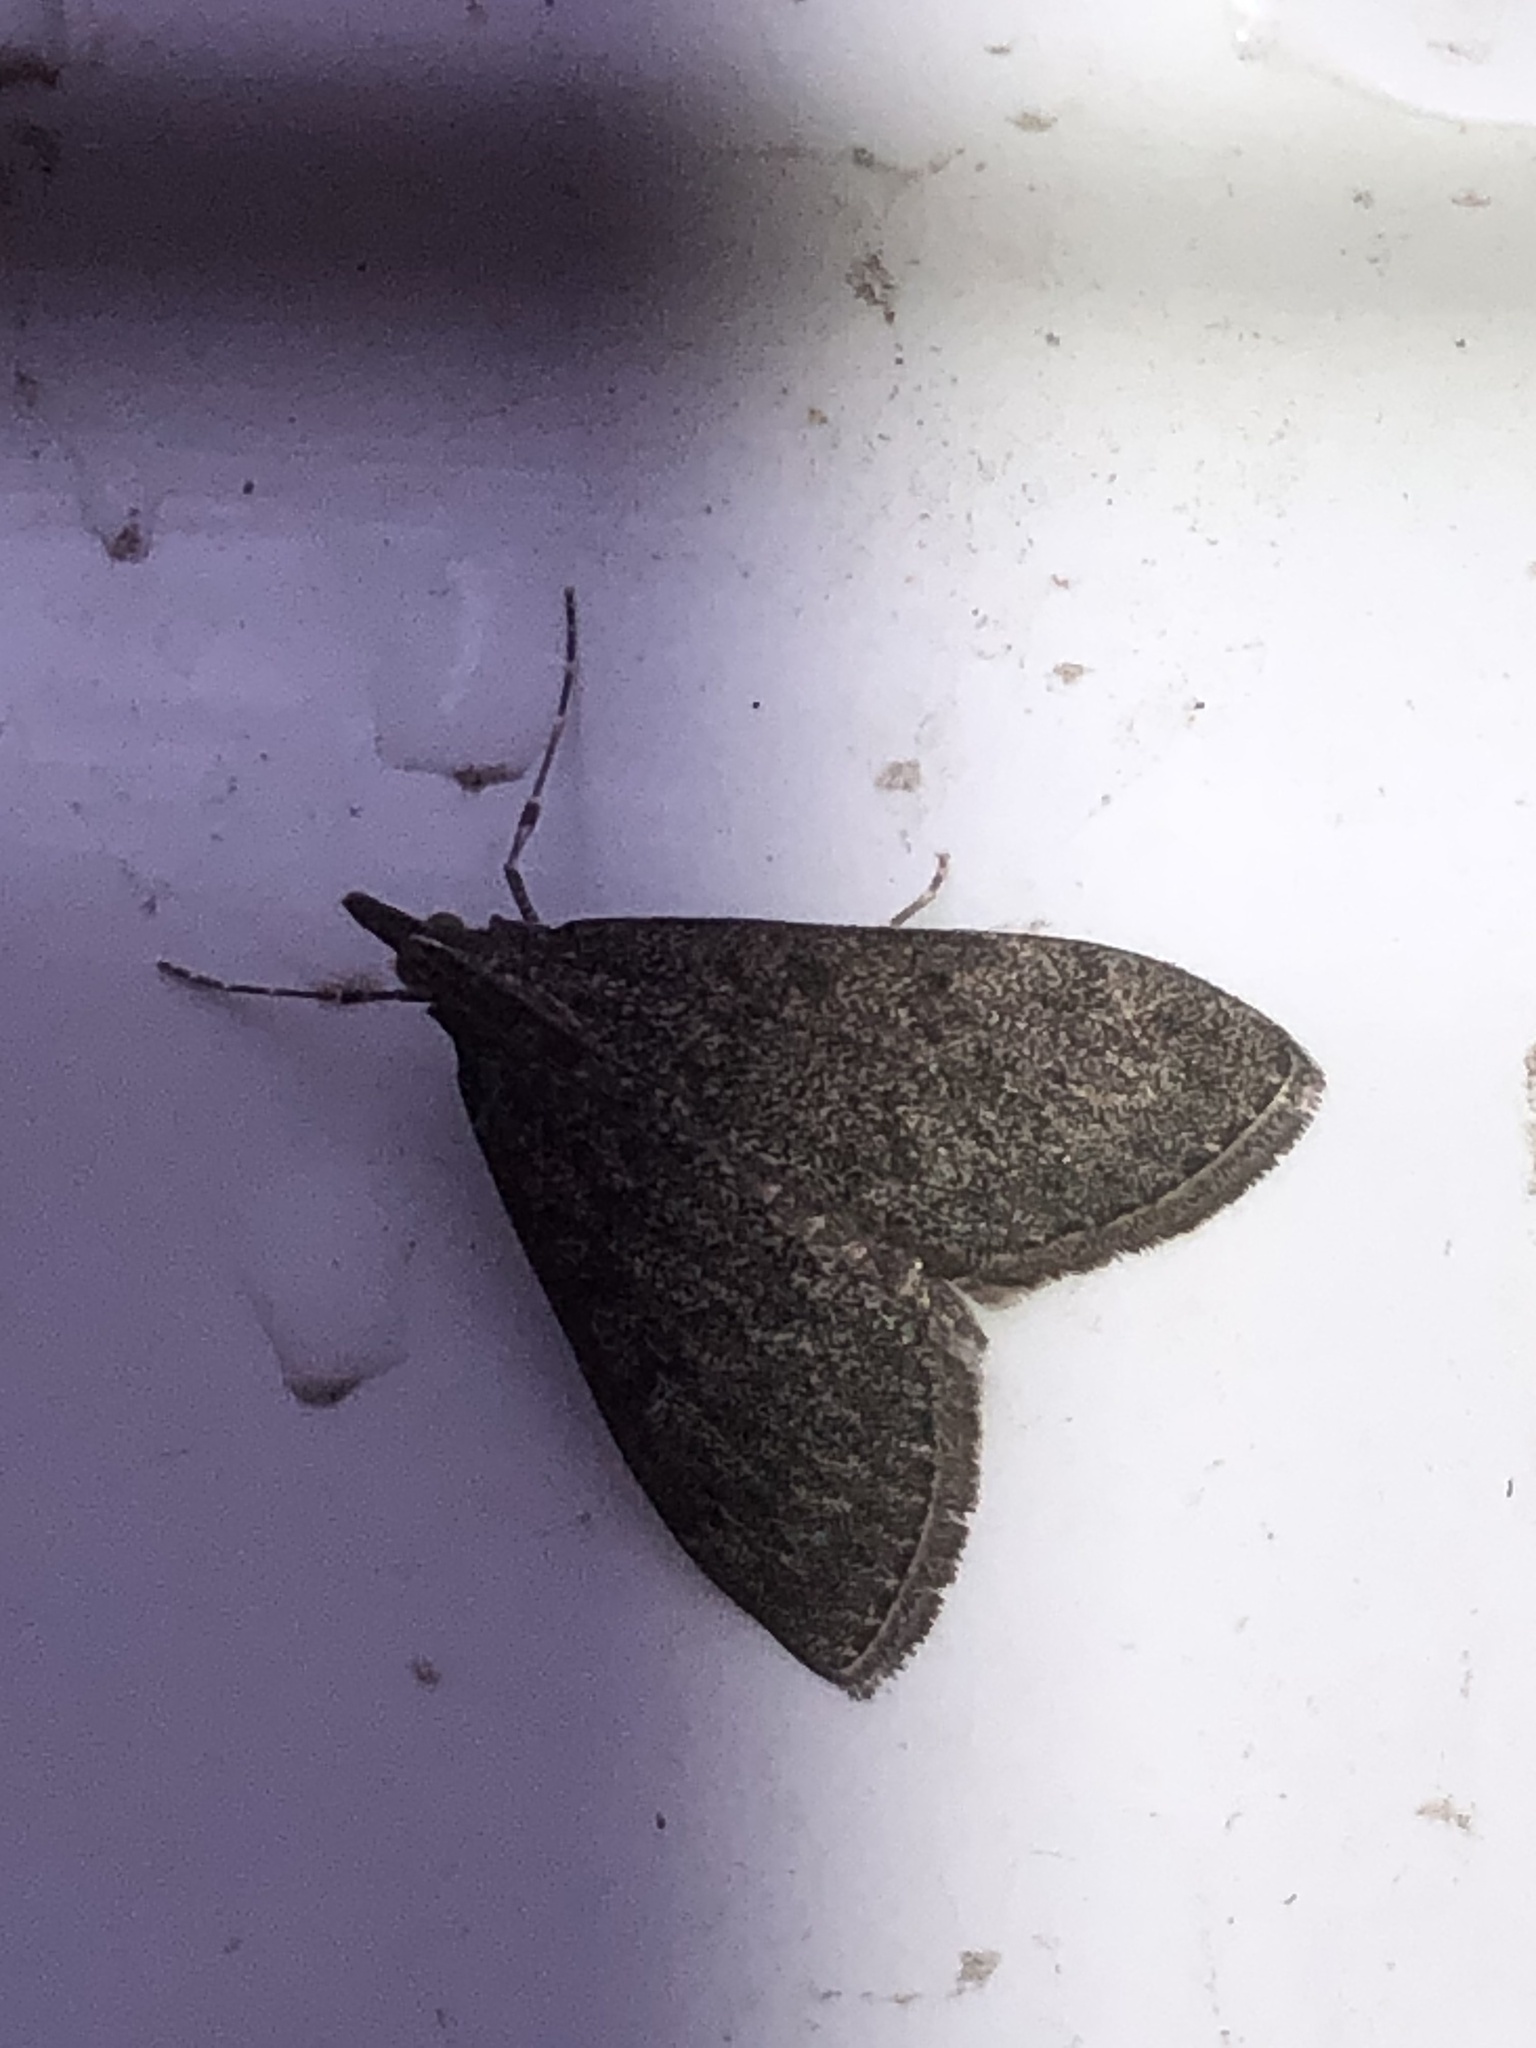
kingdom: Animalia
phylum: Arthropoda
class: Insecta
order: Lepidoptera
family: Crambidae
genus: Saucrobotys
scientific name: Saucrobotys fumoferalis
